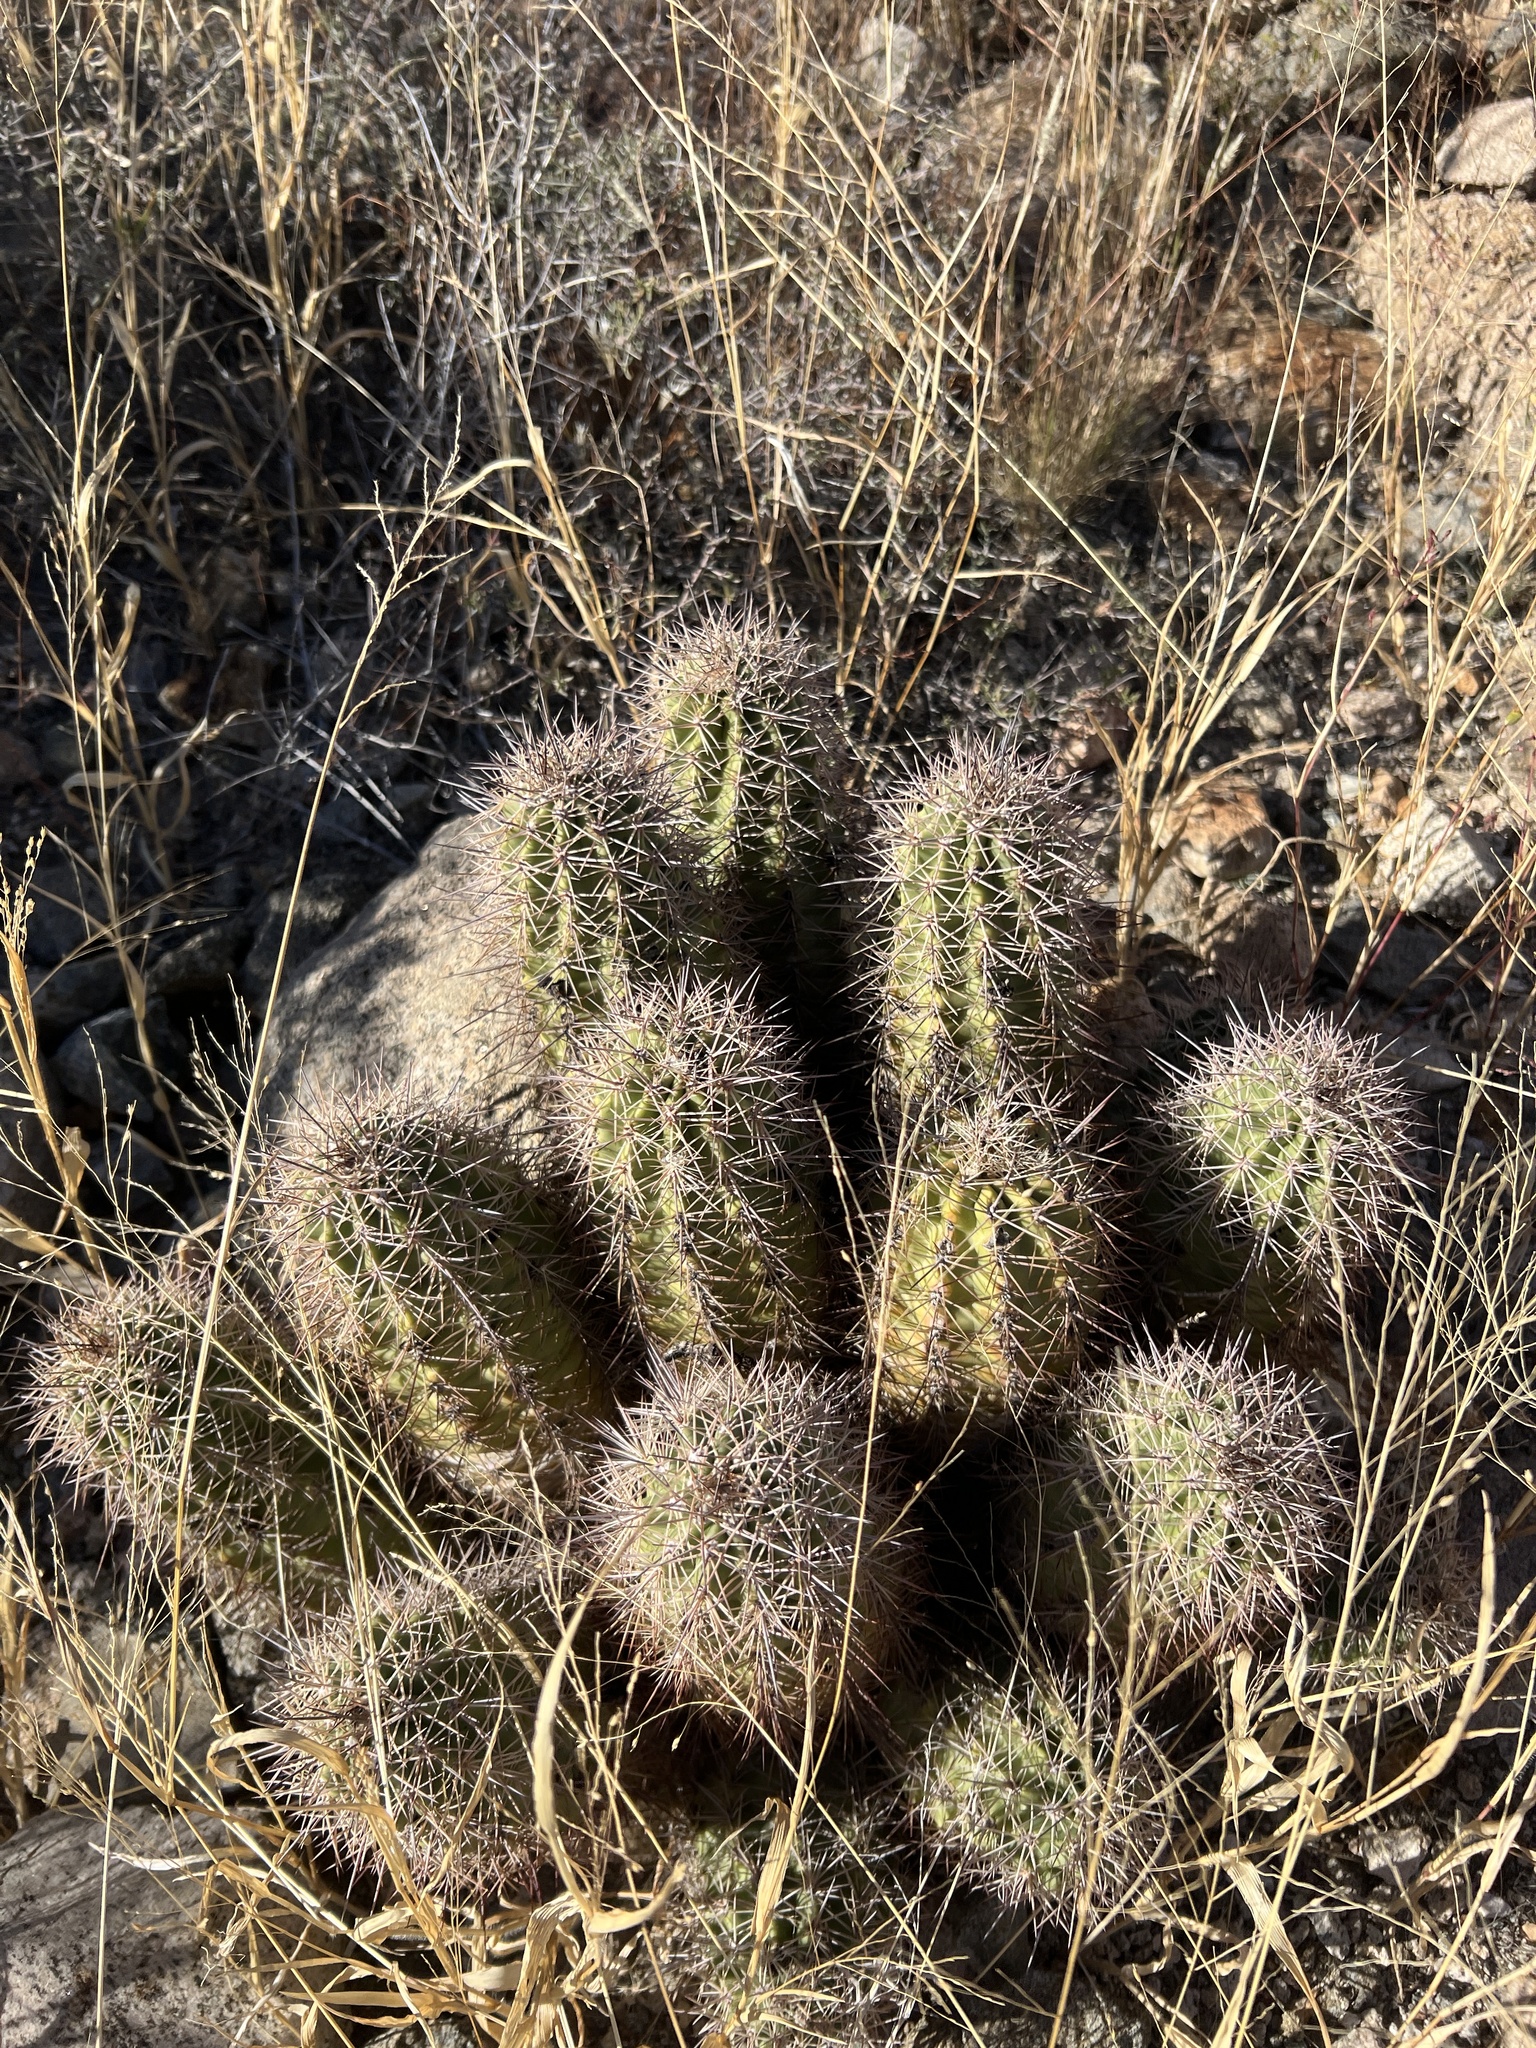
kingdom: Plantae
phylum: Tracheophyta
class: Magnoliopsida
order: Caryophyllales
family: Cactaceae
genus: Echinocereus
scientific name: Echinocereus coccineus
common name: Scarlet hedgehog cactus
